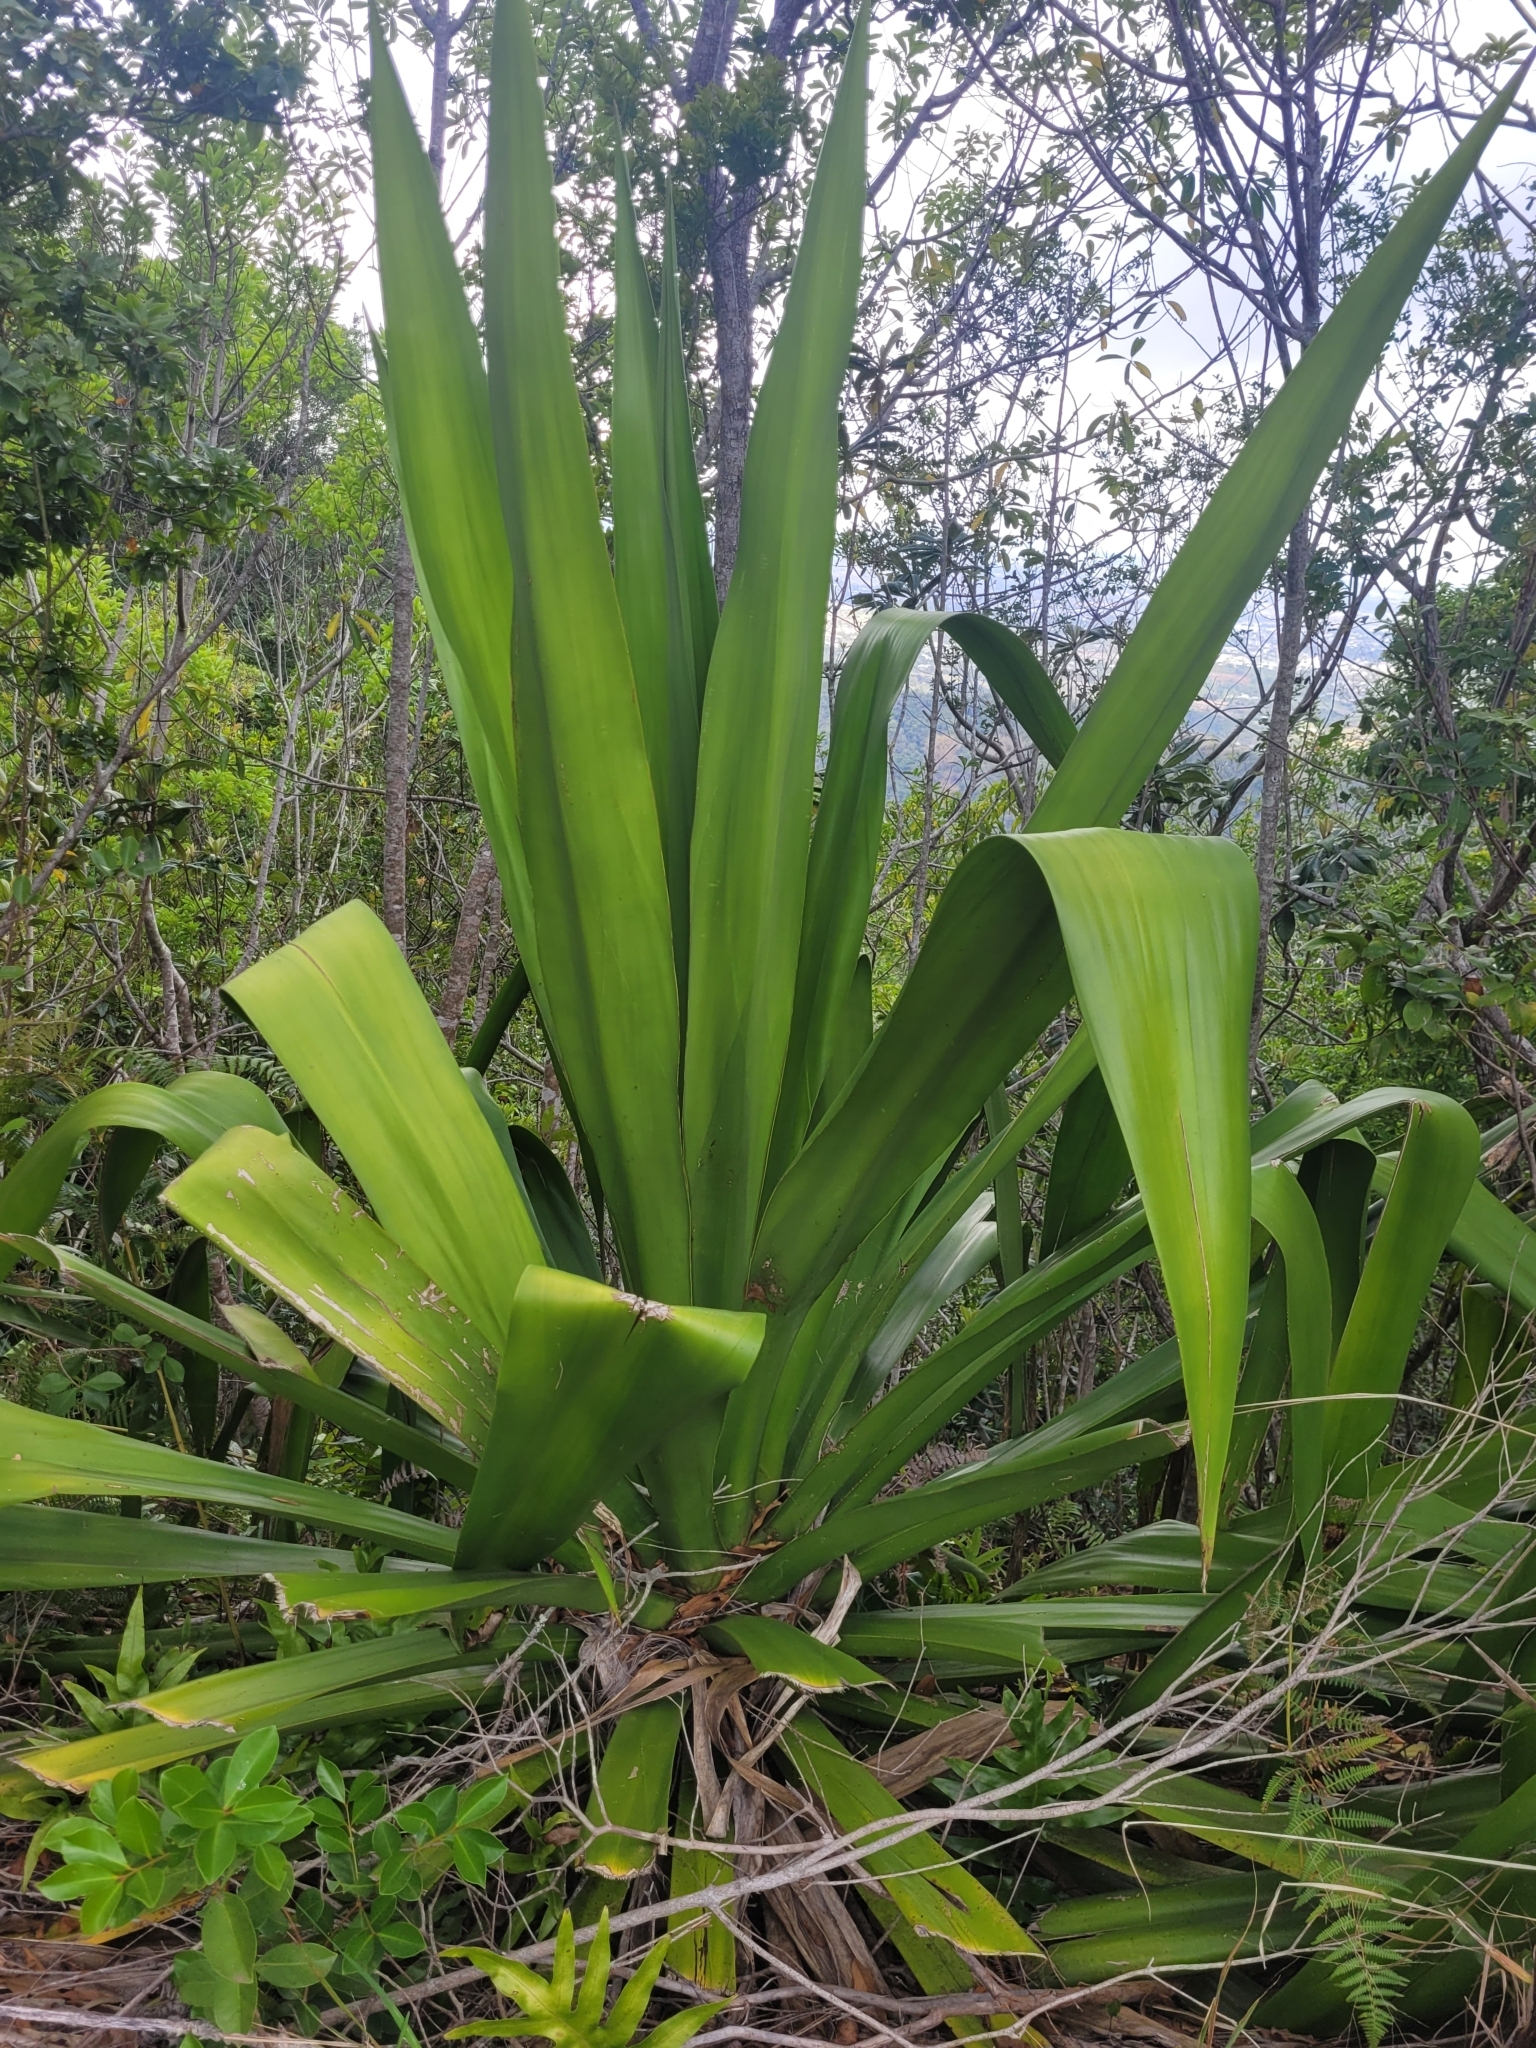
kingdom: Plantae
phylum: Tracheophyta
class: Liliopsida
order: Asparagales
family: Asparagaceae
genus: Furcraea
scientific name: Furcraea foetida
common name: Mauritius hemp
